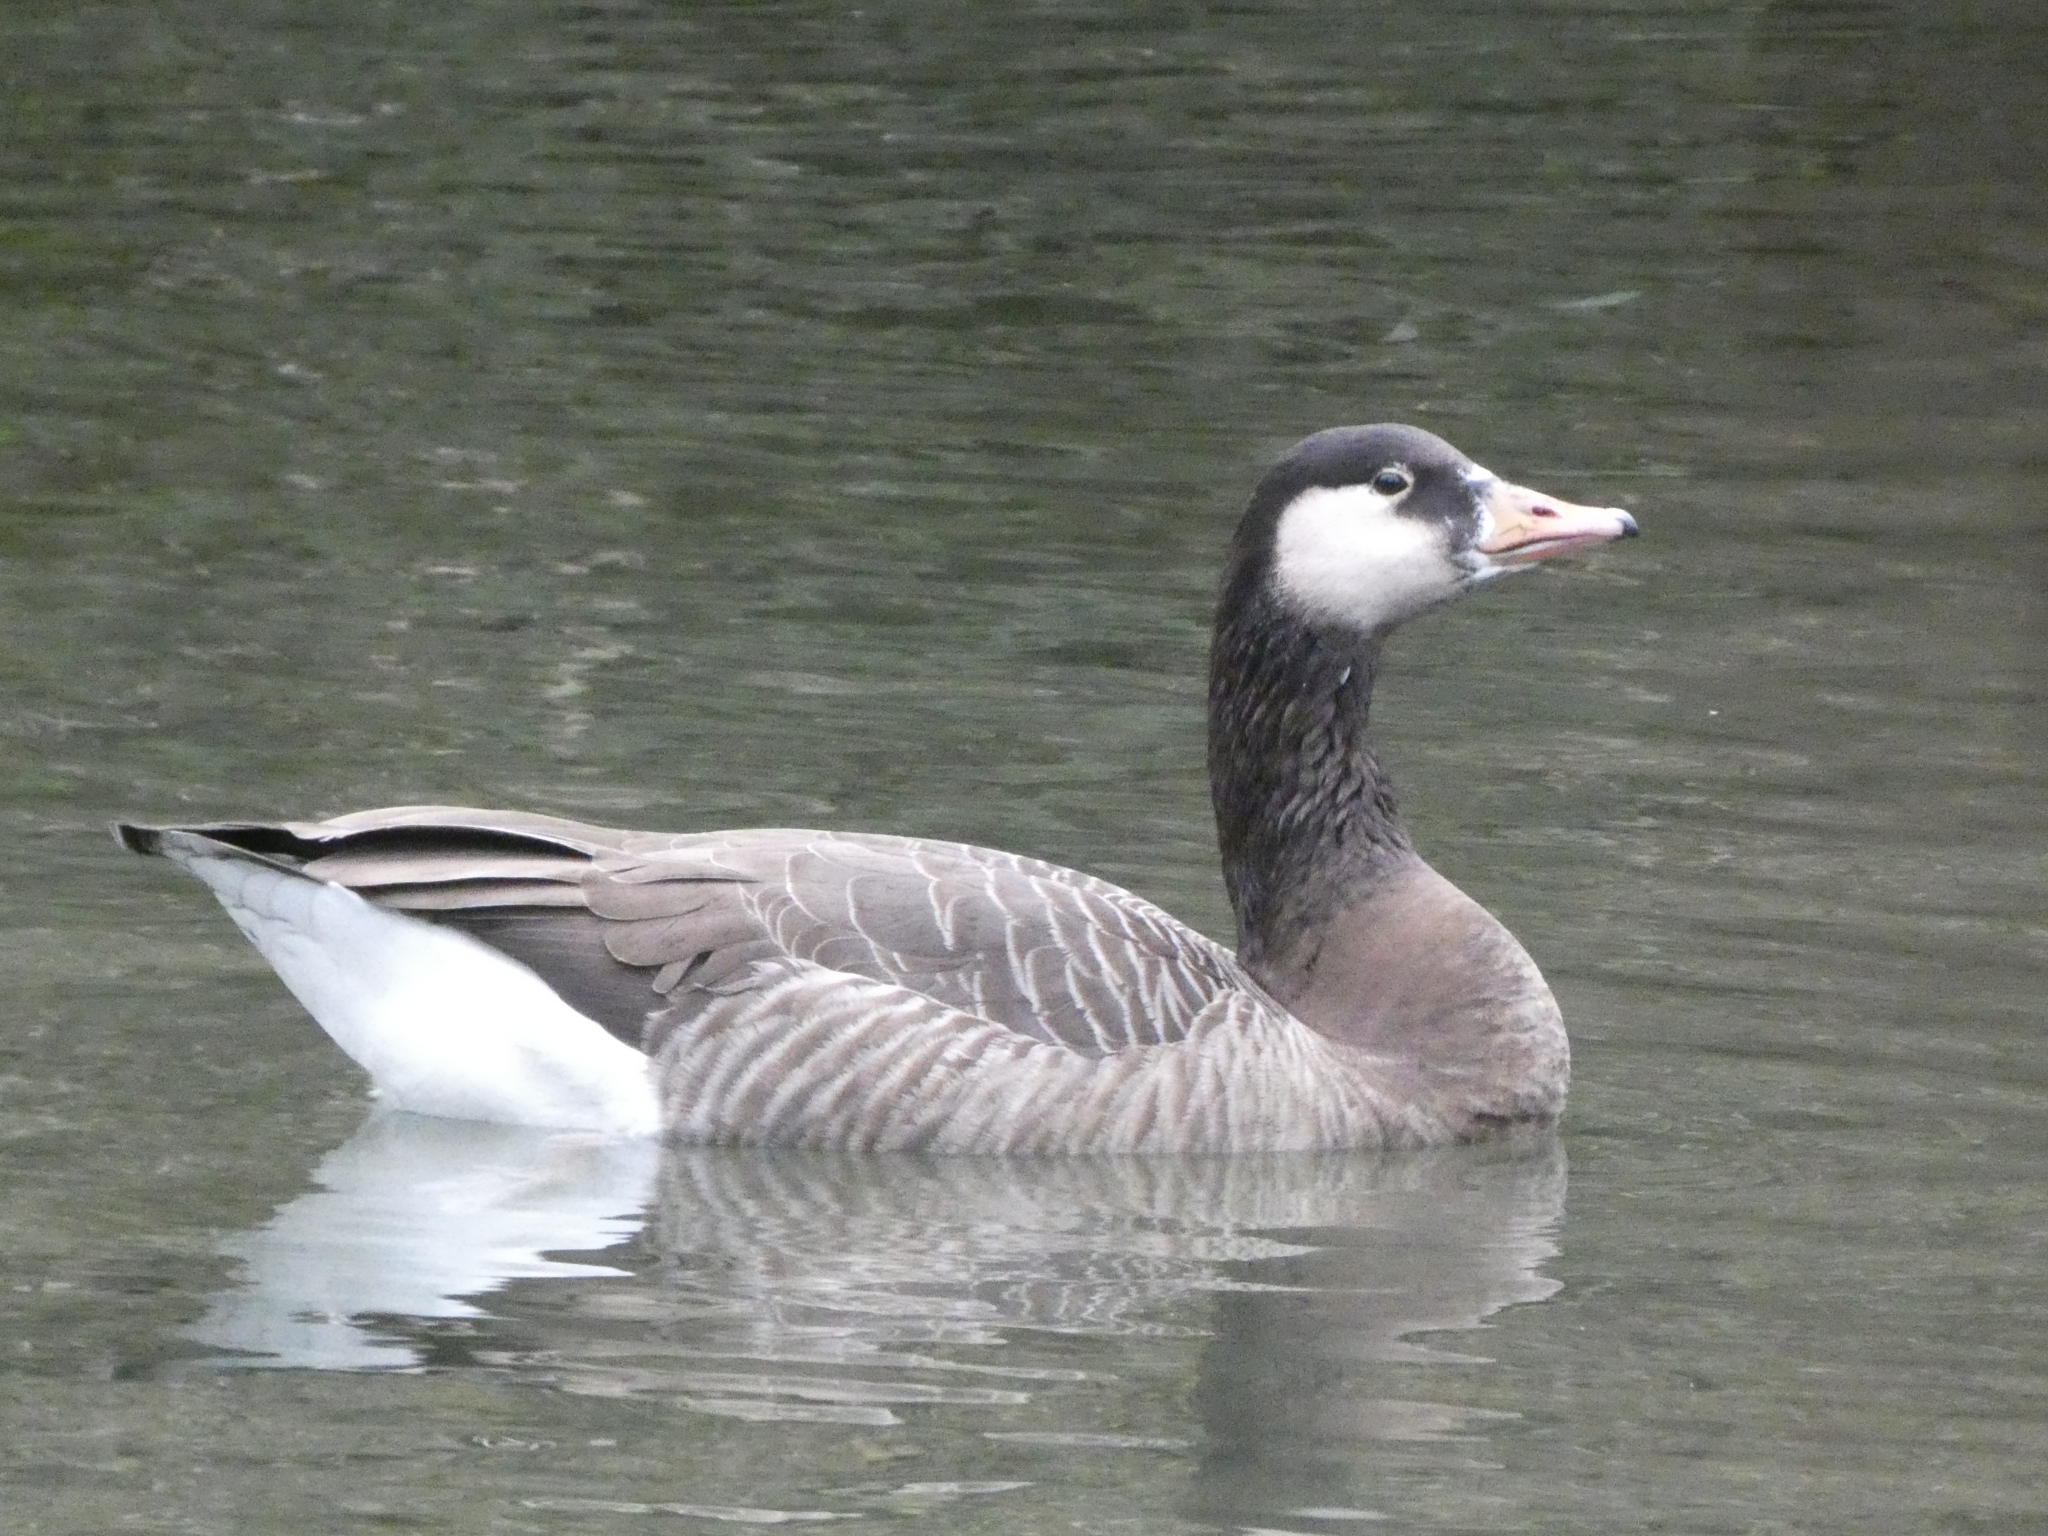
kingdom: Animalia
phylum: Chordata
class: Aves
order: Anseriformes
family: Anatidae
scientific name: Anatidae
